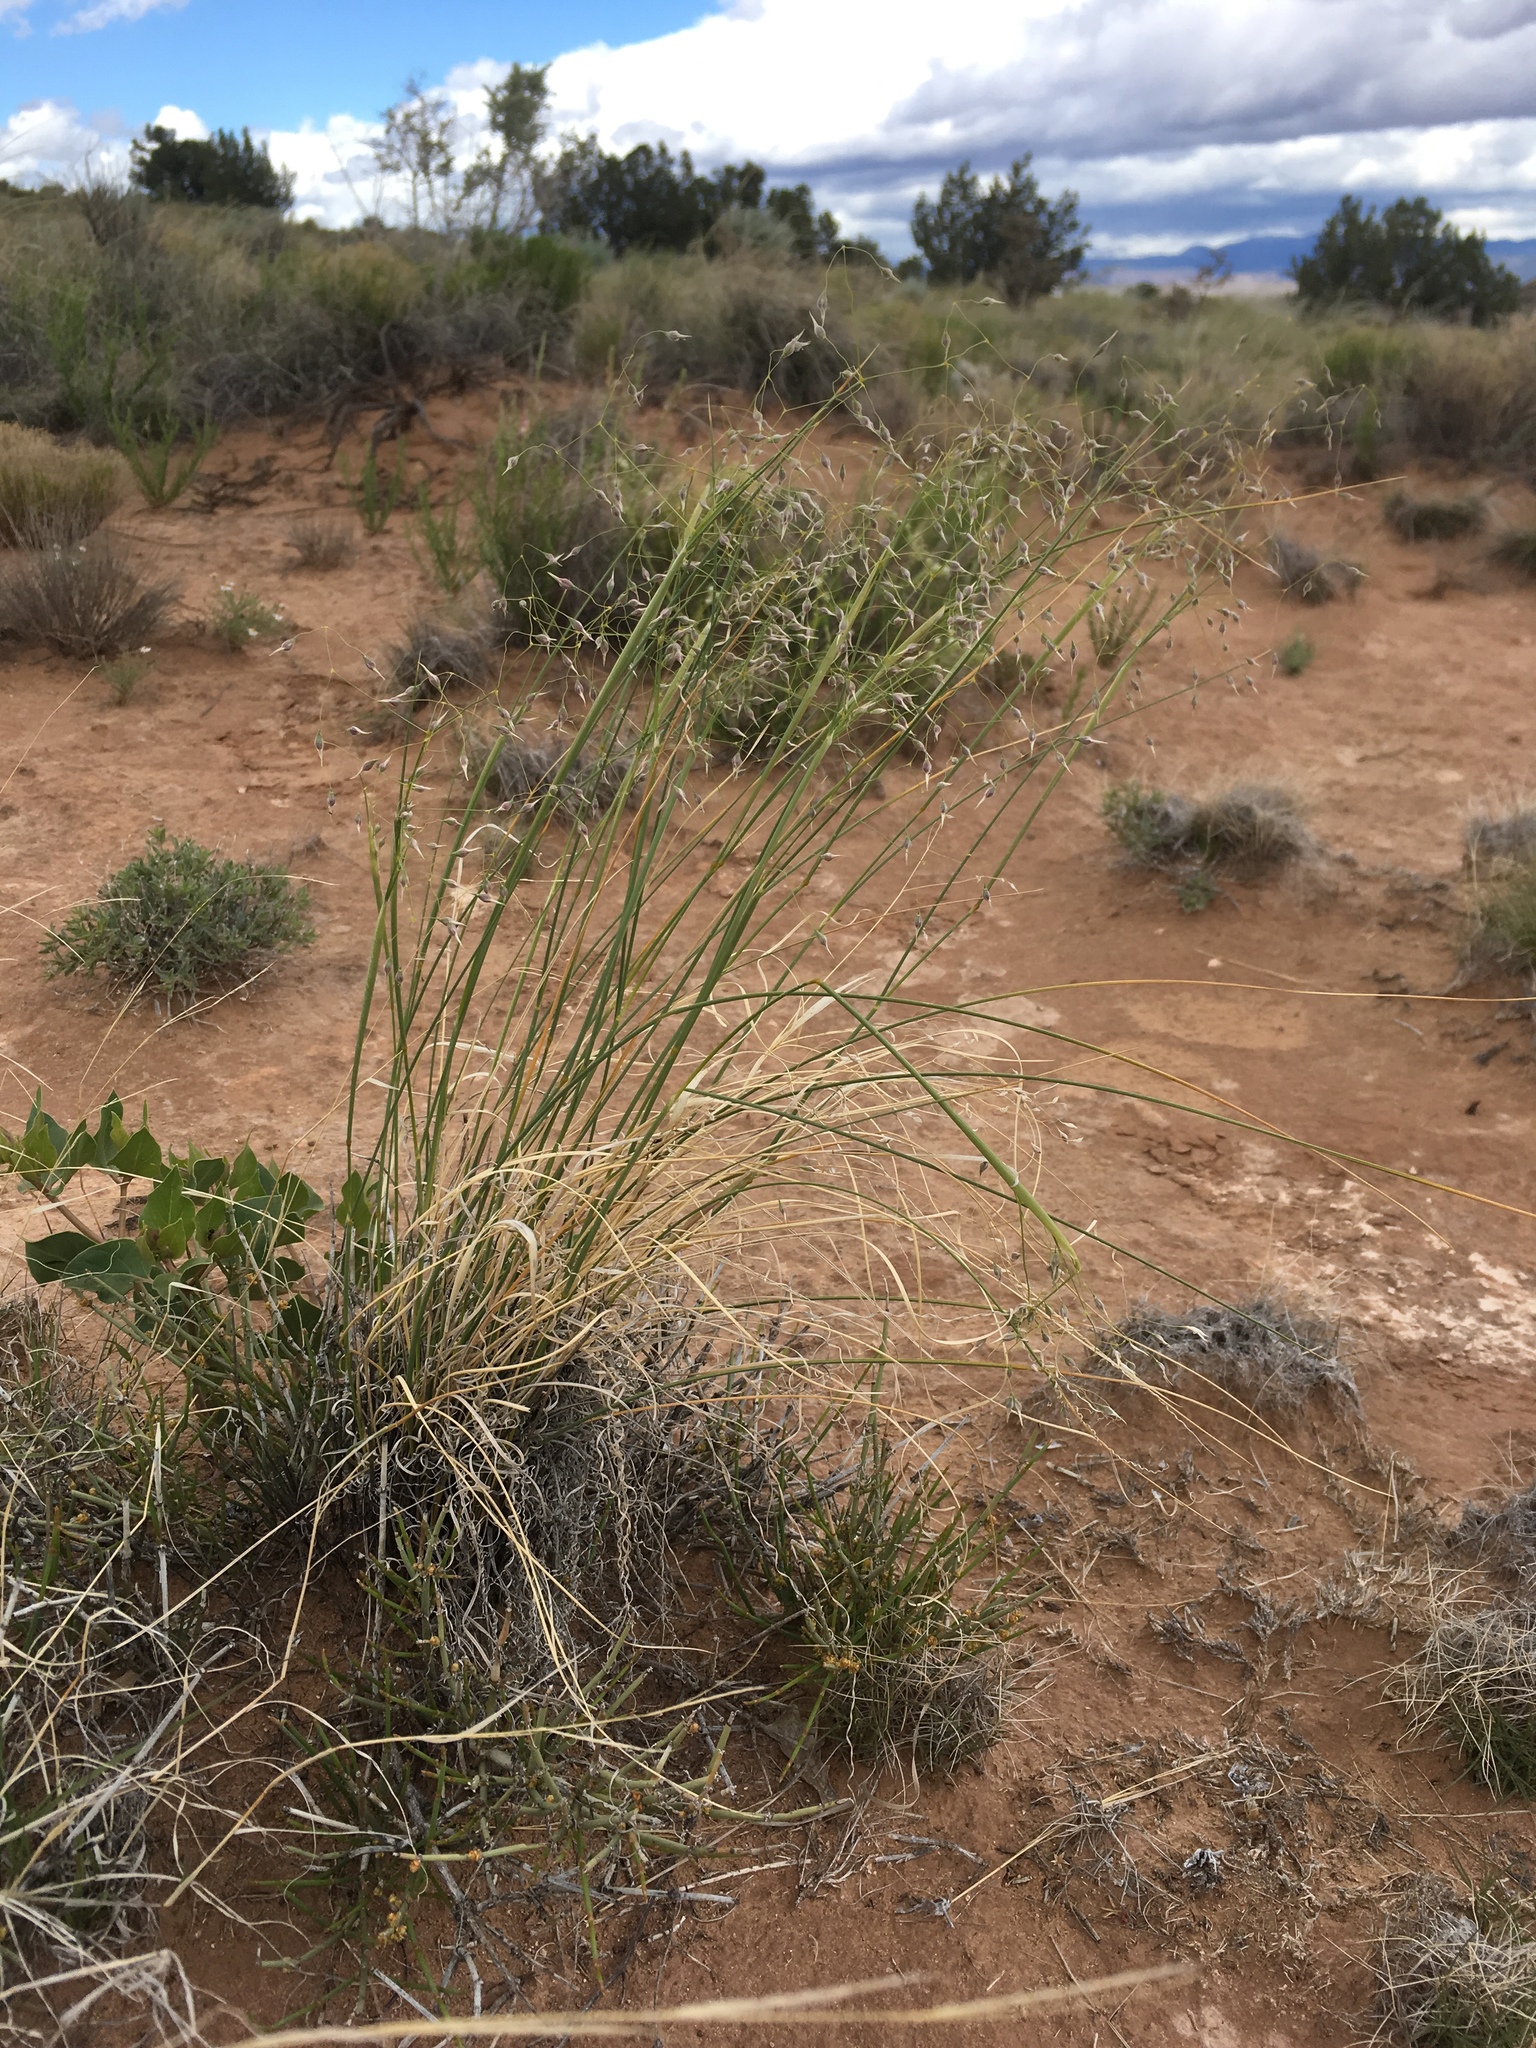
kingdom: Plantae
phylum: Tracheophyta
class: Liliopsida
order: Poales
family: Poaceae
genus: Eriocoma
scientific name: Eriocoma hymenoides
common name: Indian mountain ricegrass
